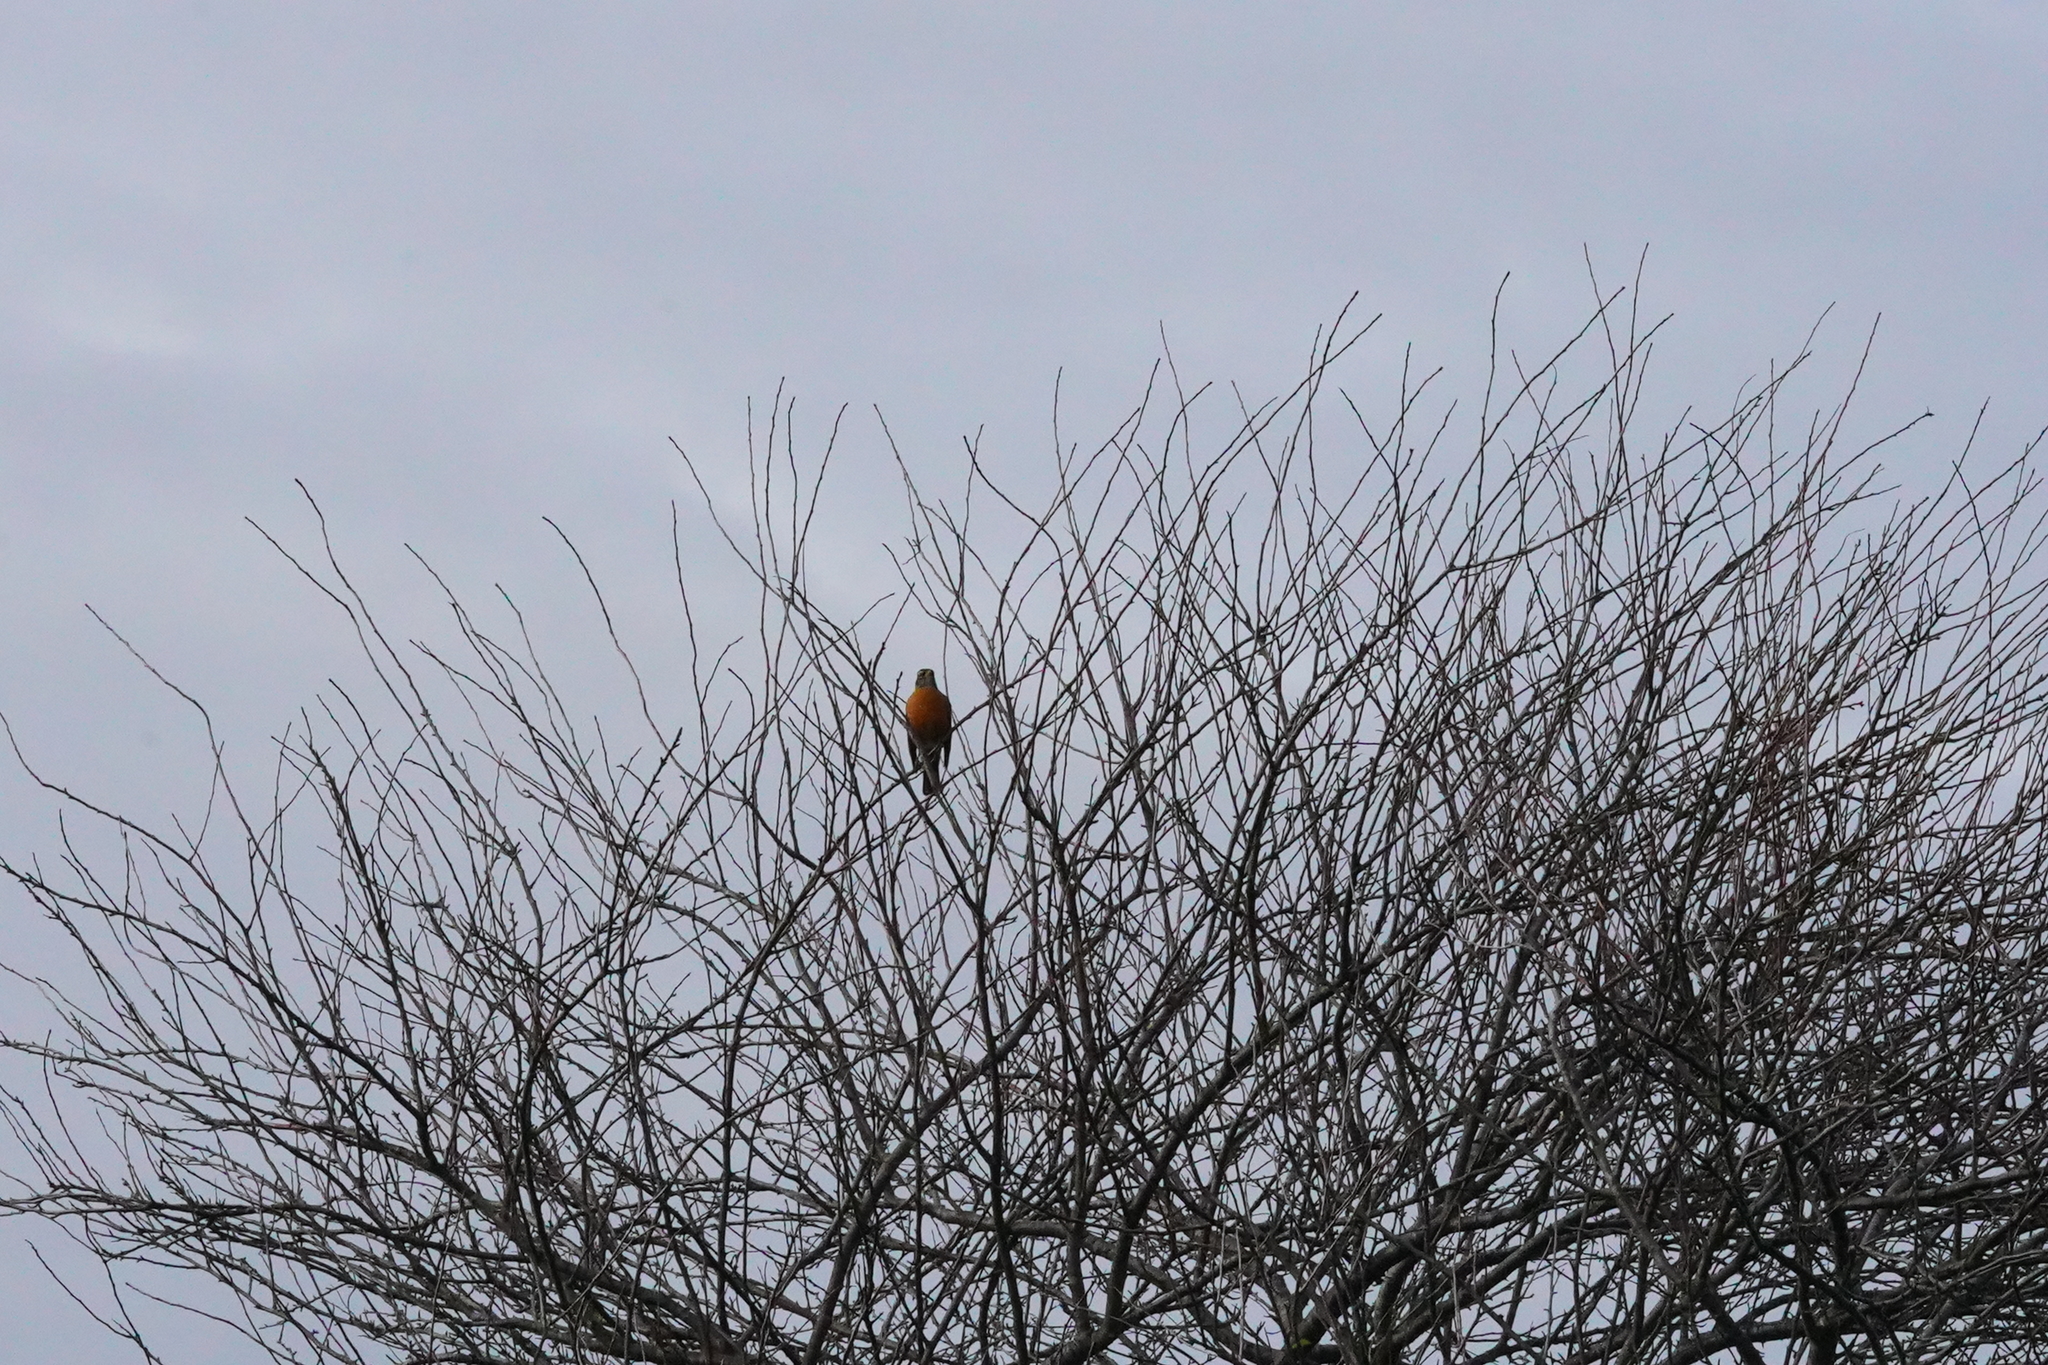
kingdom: Animalia
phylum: Chordata
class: Aves
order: Passeriformes
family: Turdidae
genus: Turdus
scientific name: Turdus migratorius
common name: American robin
